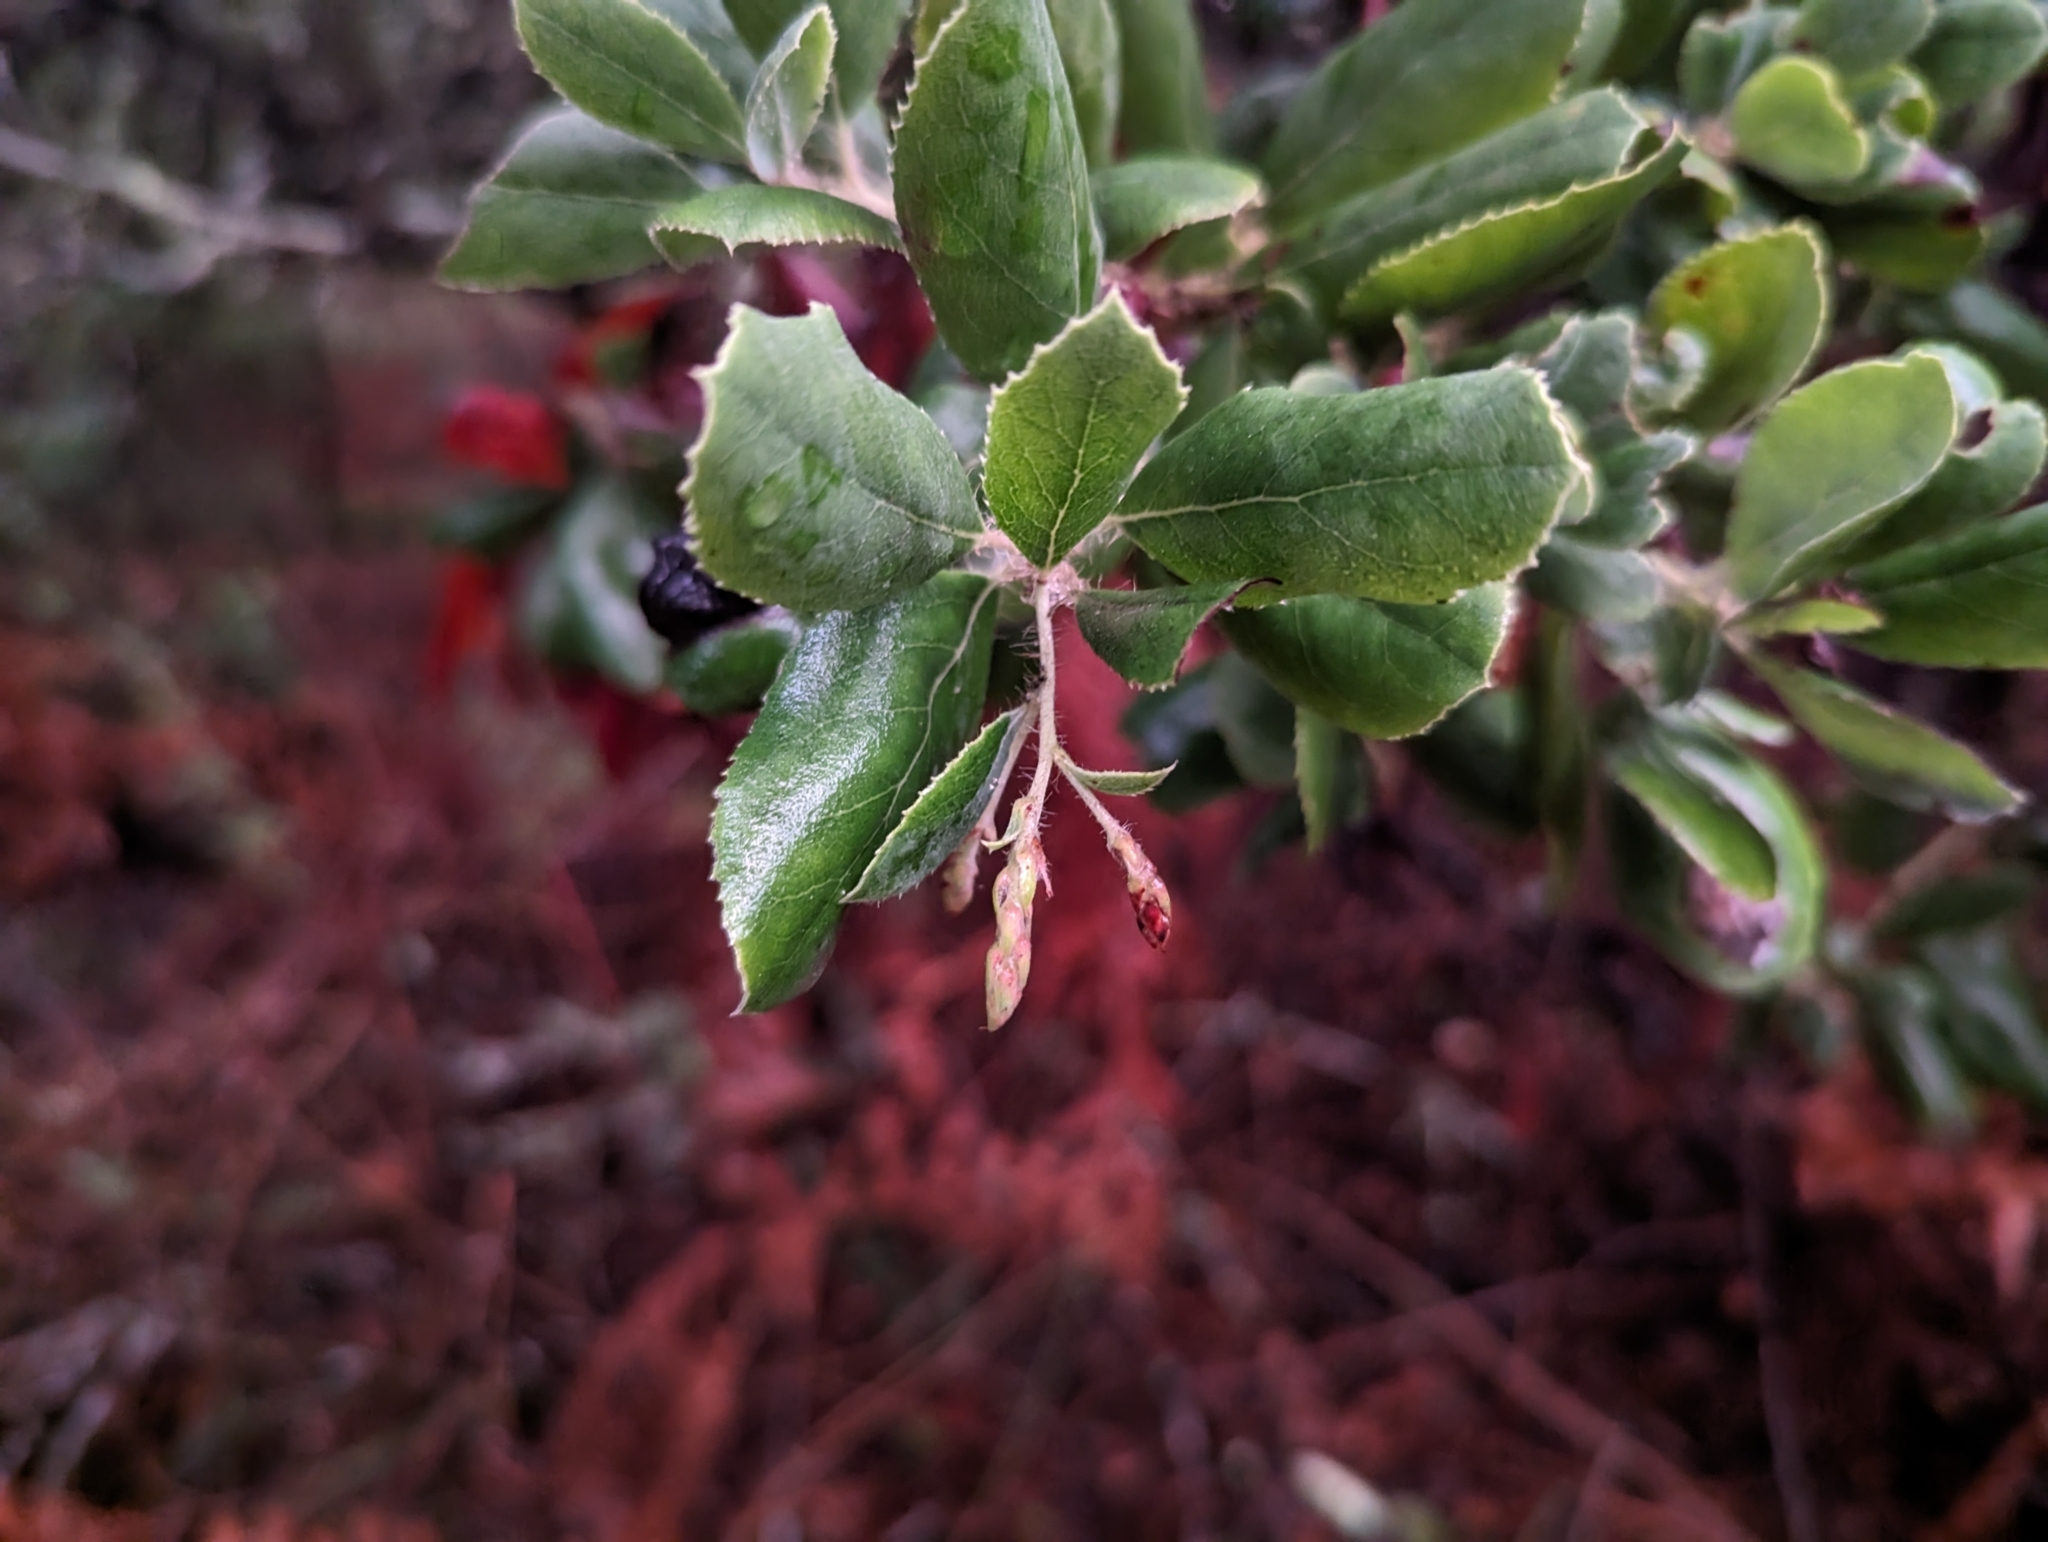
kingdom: Plantae
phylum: Tracheophyta
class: Magnoliopsida
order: Ericales
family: Ericaceae
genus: Arctostaphylos
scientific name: Arctostaphylos crustacea
